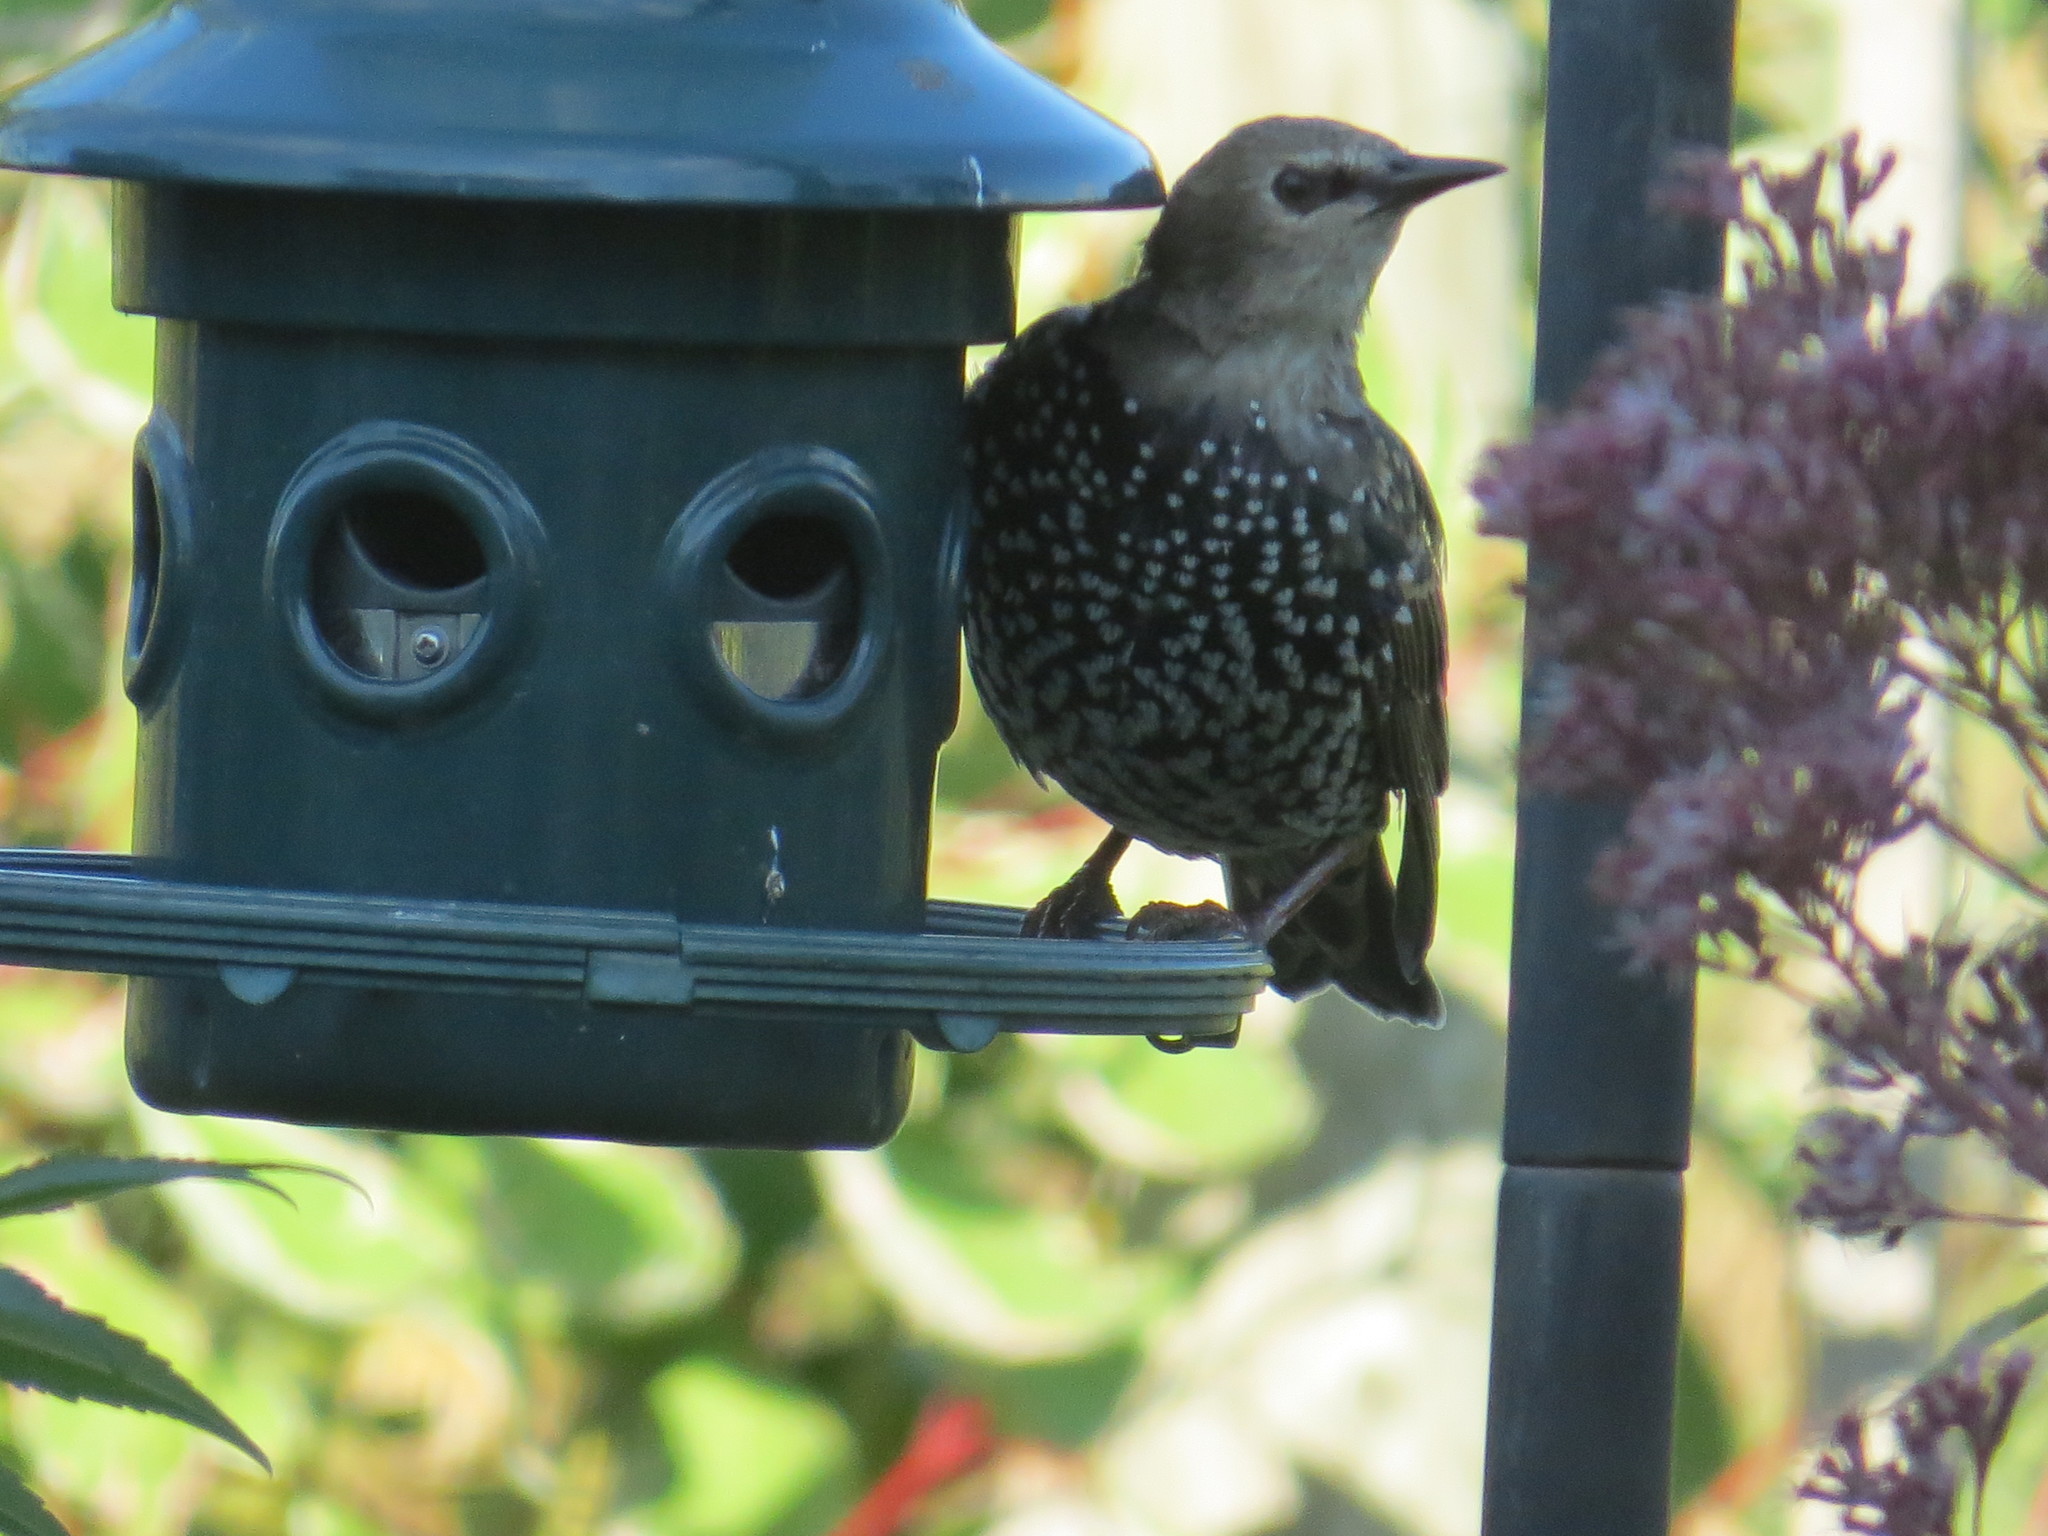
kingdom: Animalia
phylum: Chordata
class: Aves
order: Passeriformes
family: Sturnidae
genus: Sturnus
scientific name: Sturnus vulgaris
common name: Common starling
